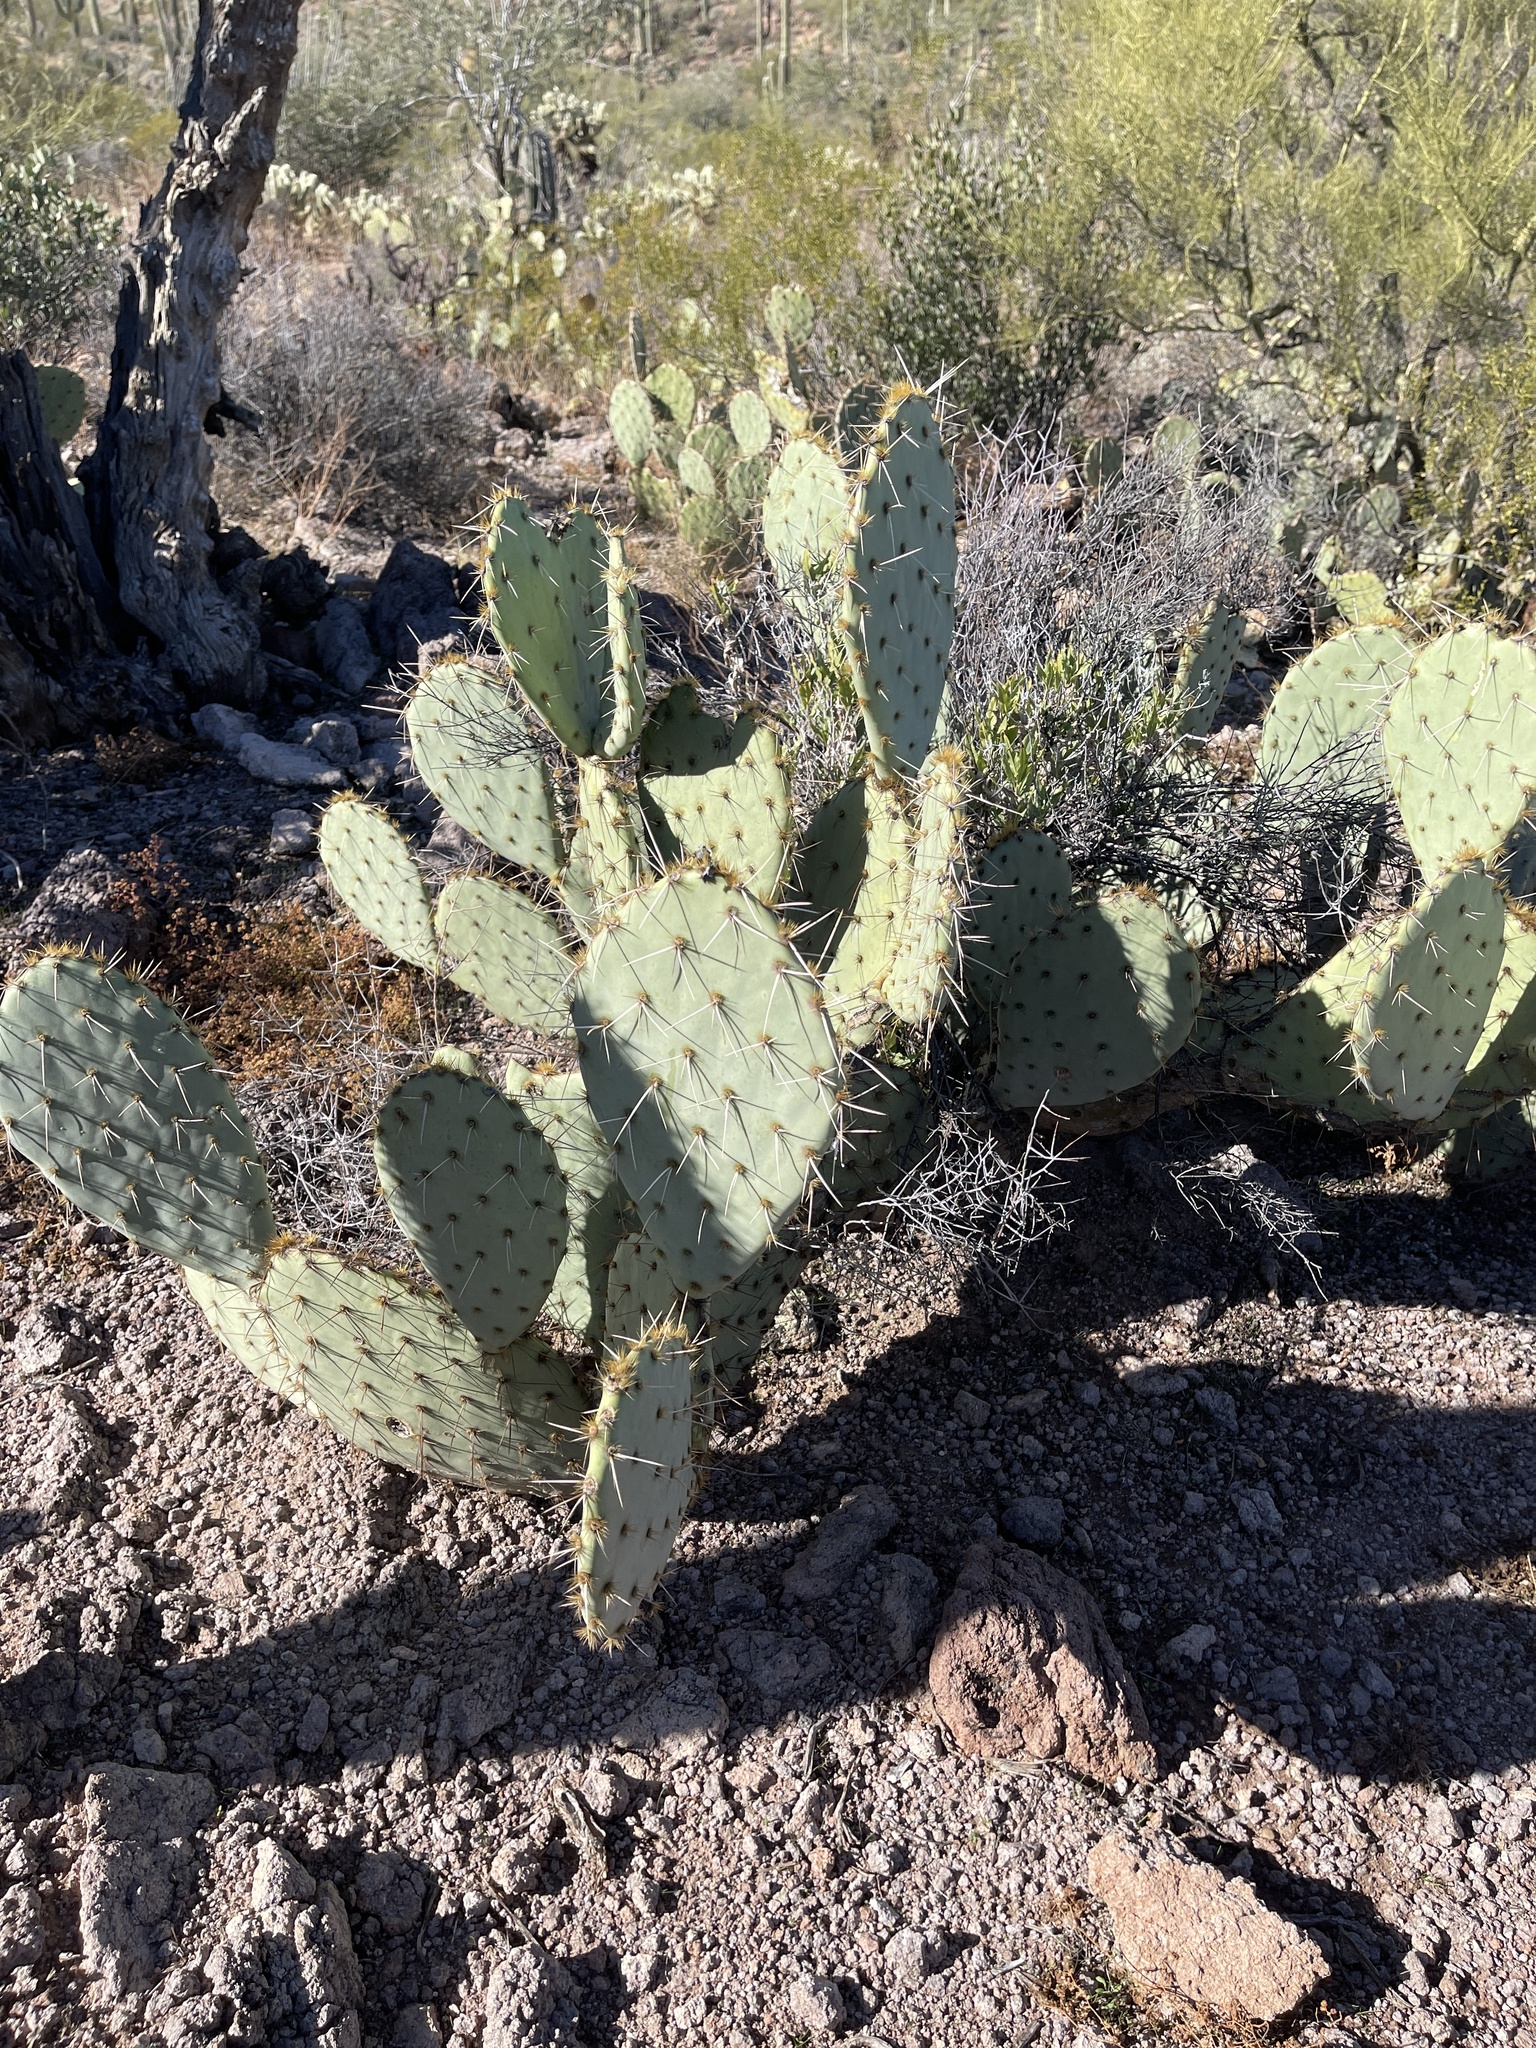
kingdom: Plantae
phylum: Tracheophyta
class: Magnoliopsida
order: Caryophyllales
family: Cactaceae
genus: Opuntia
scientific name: Opuntia engelmannii
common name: Cactus-apple
